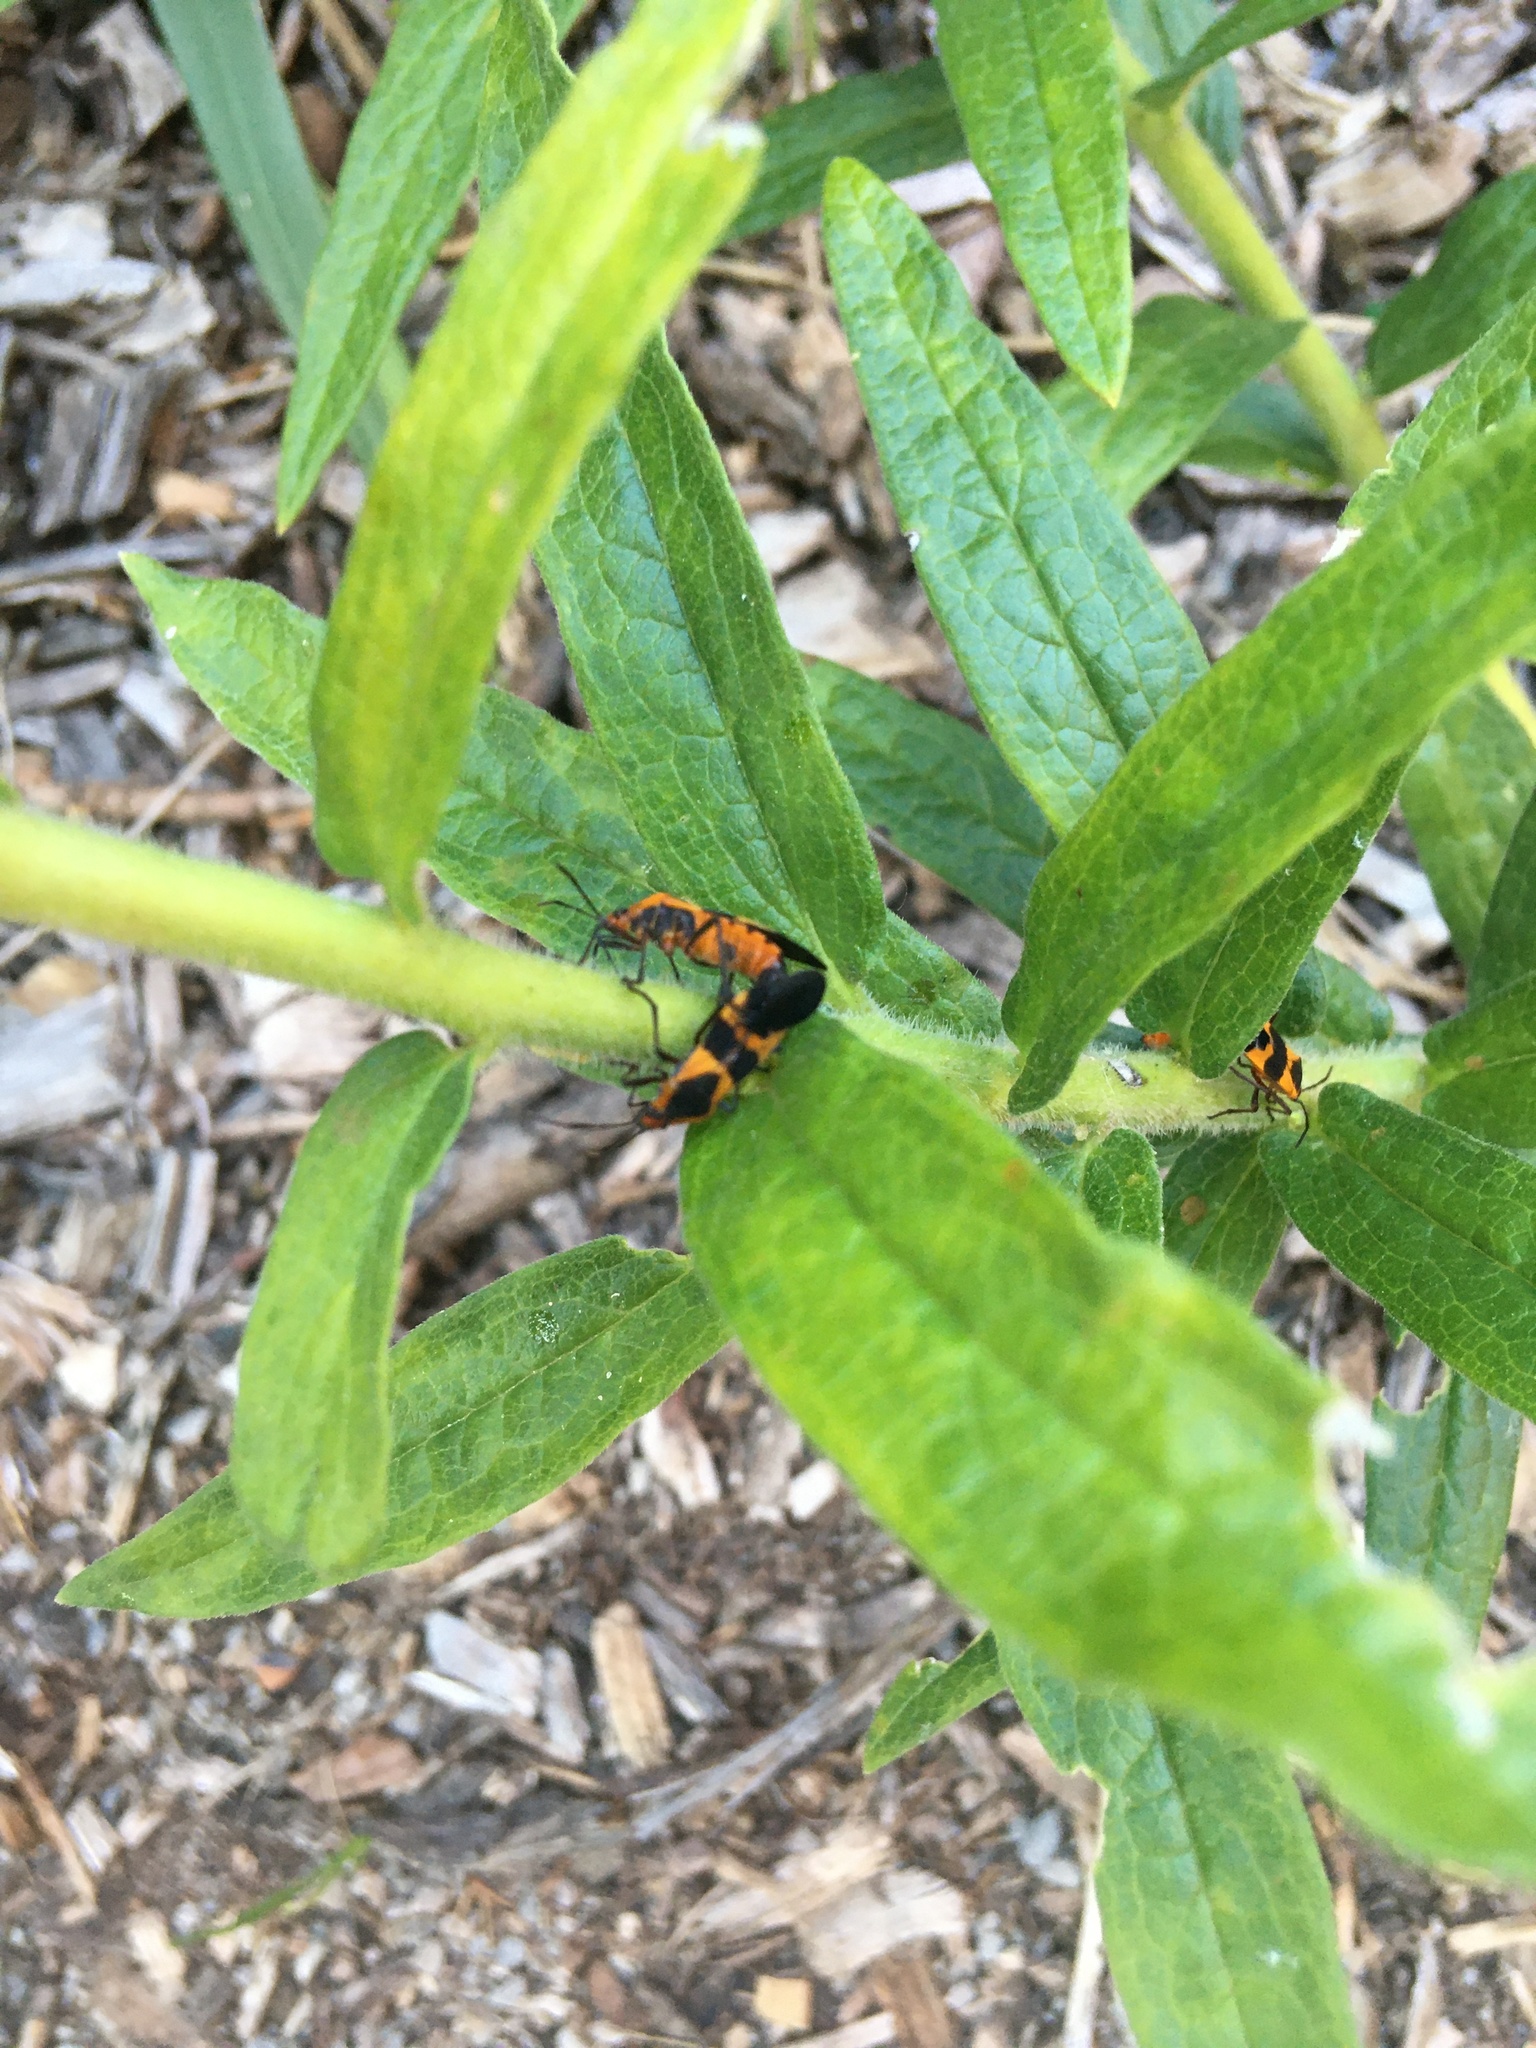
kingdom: Animalia
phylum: Arthropoda
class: Insecta
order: Hemiptera
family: Lygaeidae
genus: Oncopeltus
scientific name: Oncopeltus fasciatus
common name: Large milkweed bug
